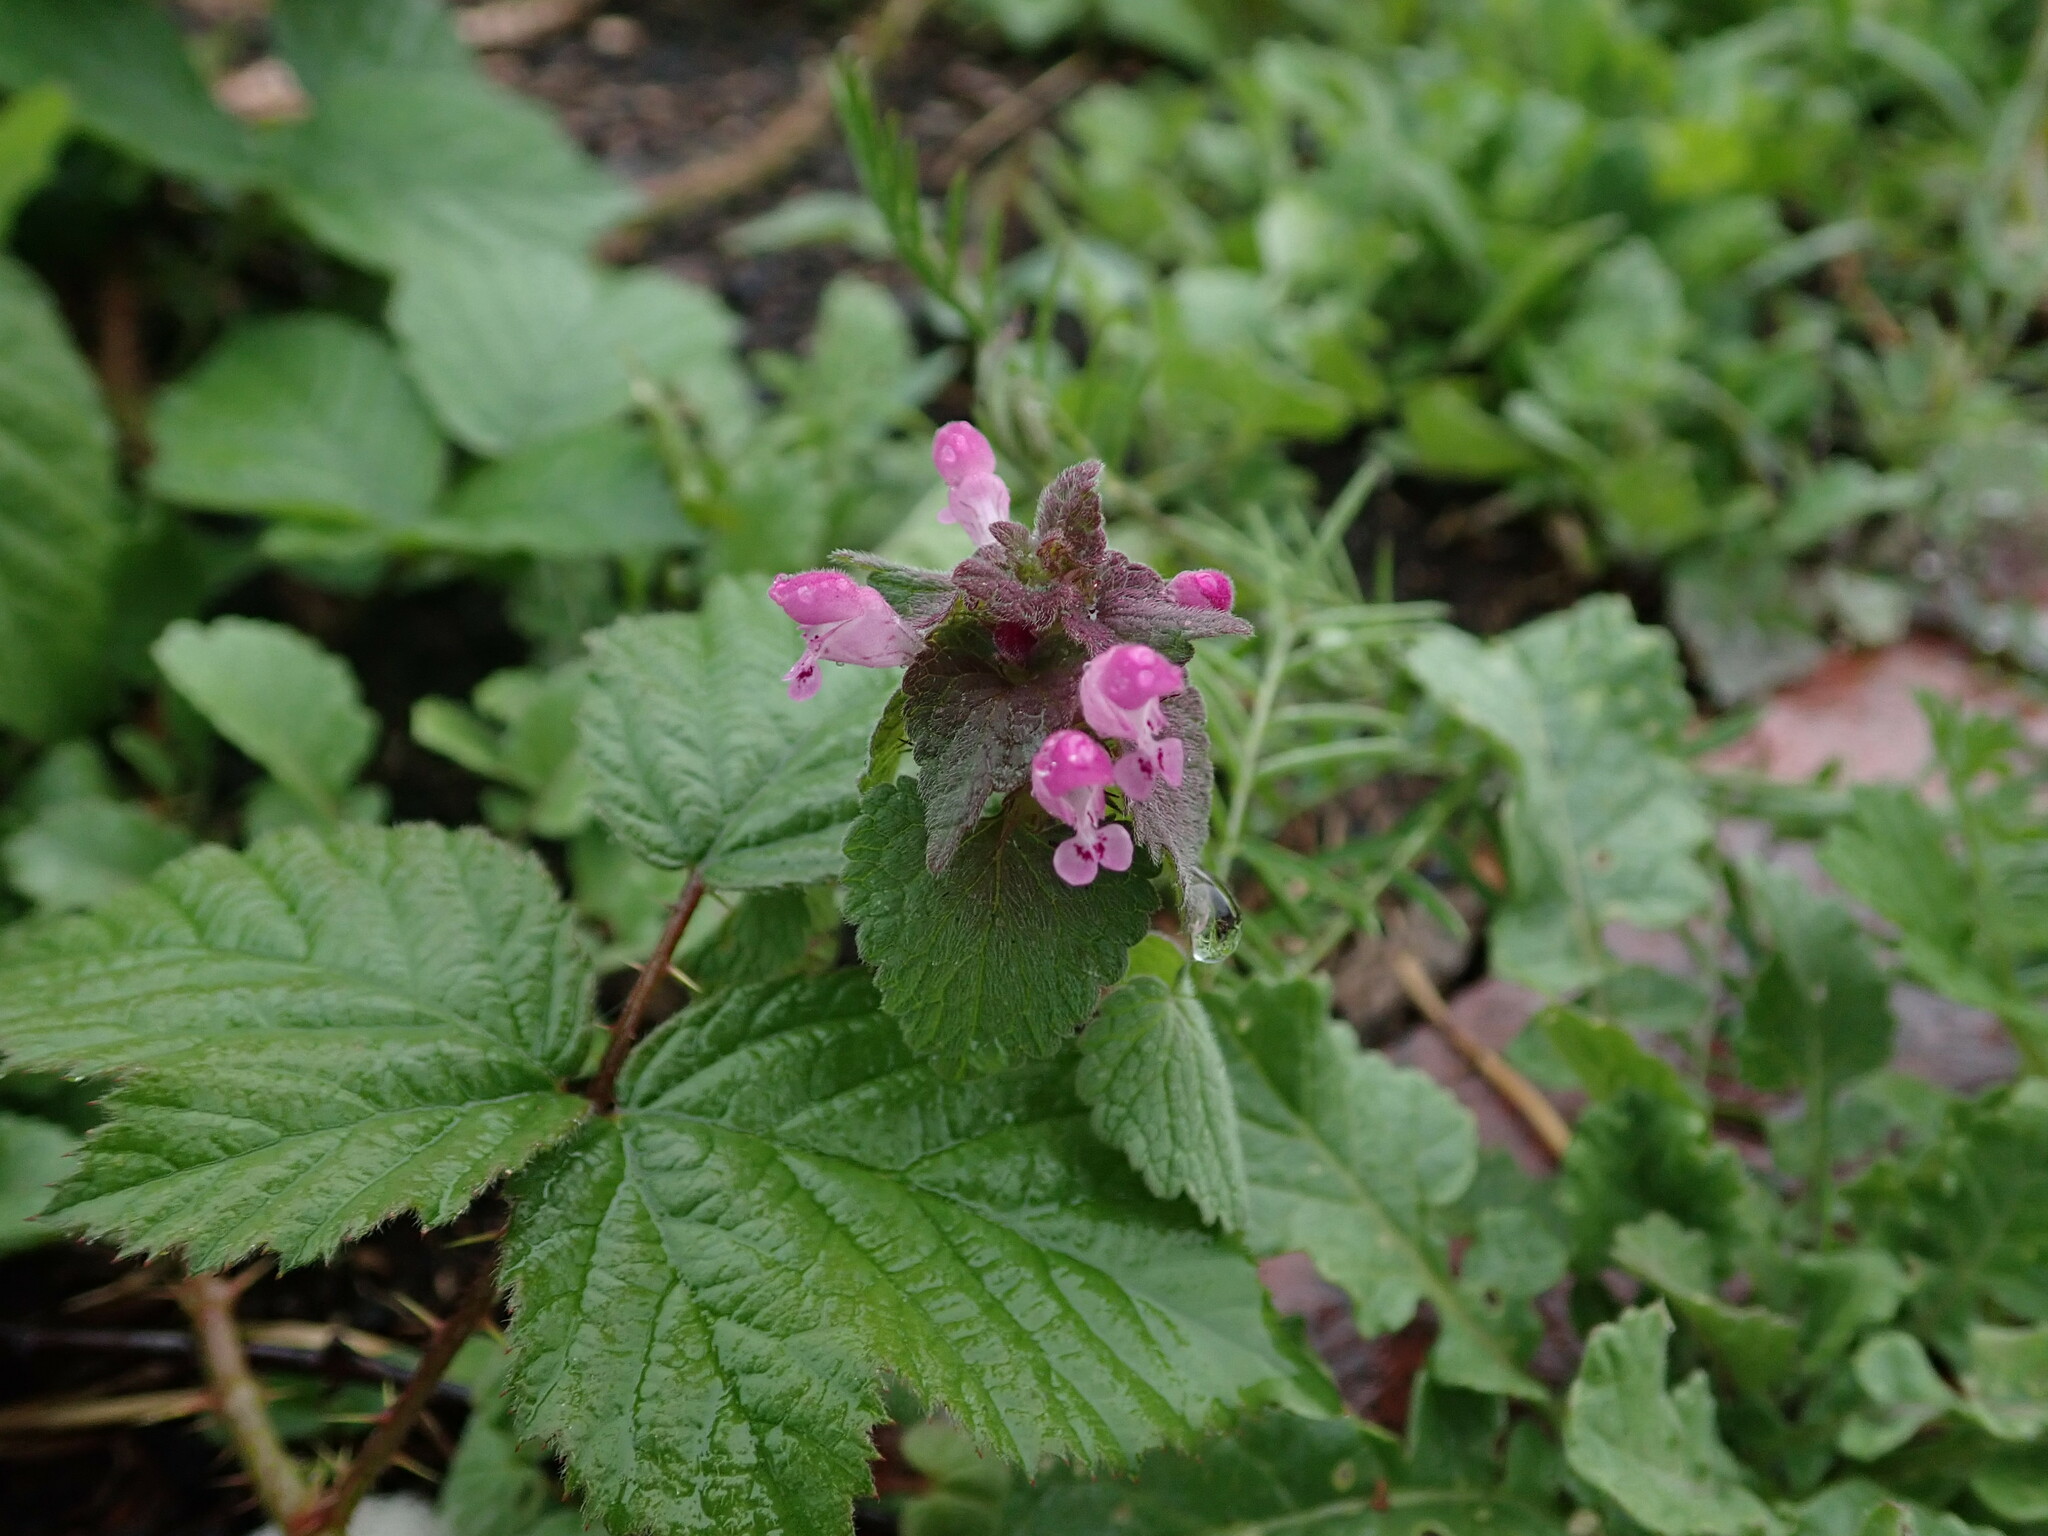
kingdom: Plantae
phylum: Tracheophyta
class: Magnoliopsida
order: Lamiales
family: Lamiaceae
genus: Lamium
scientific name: Lamium purpureum
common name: Red dead-nettle
